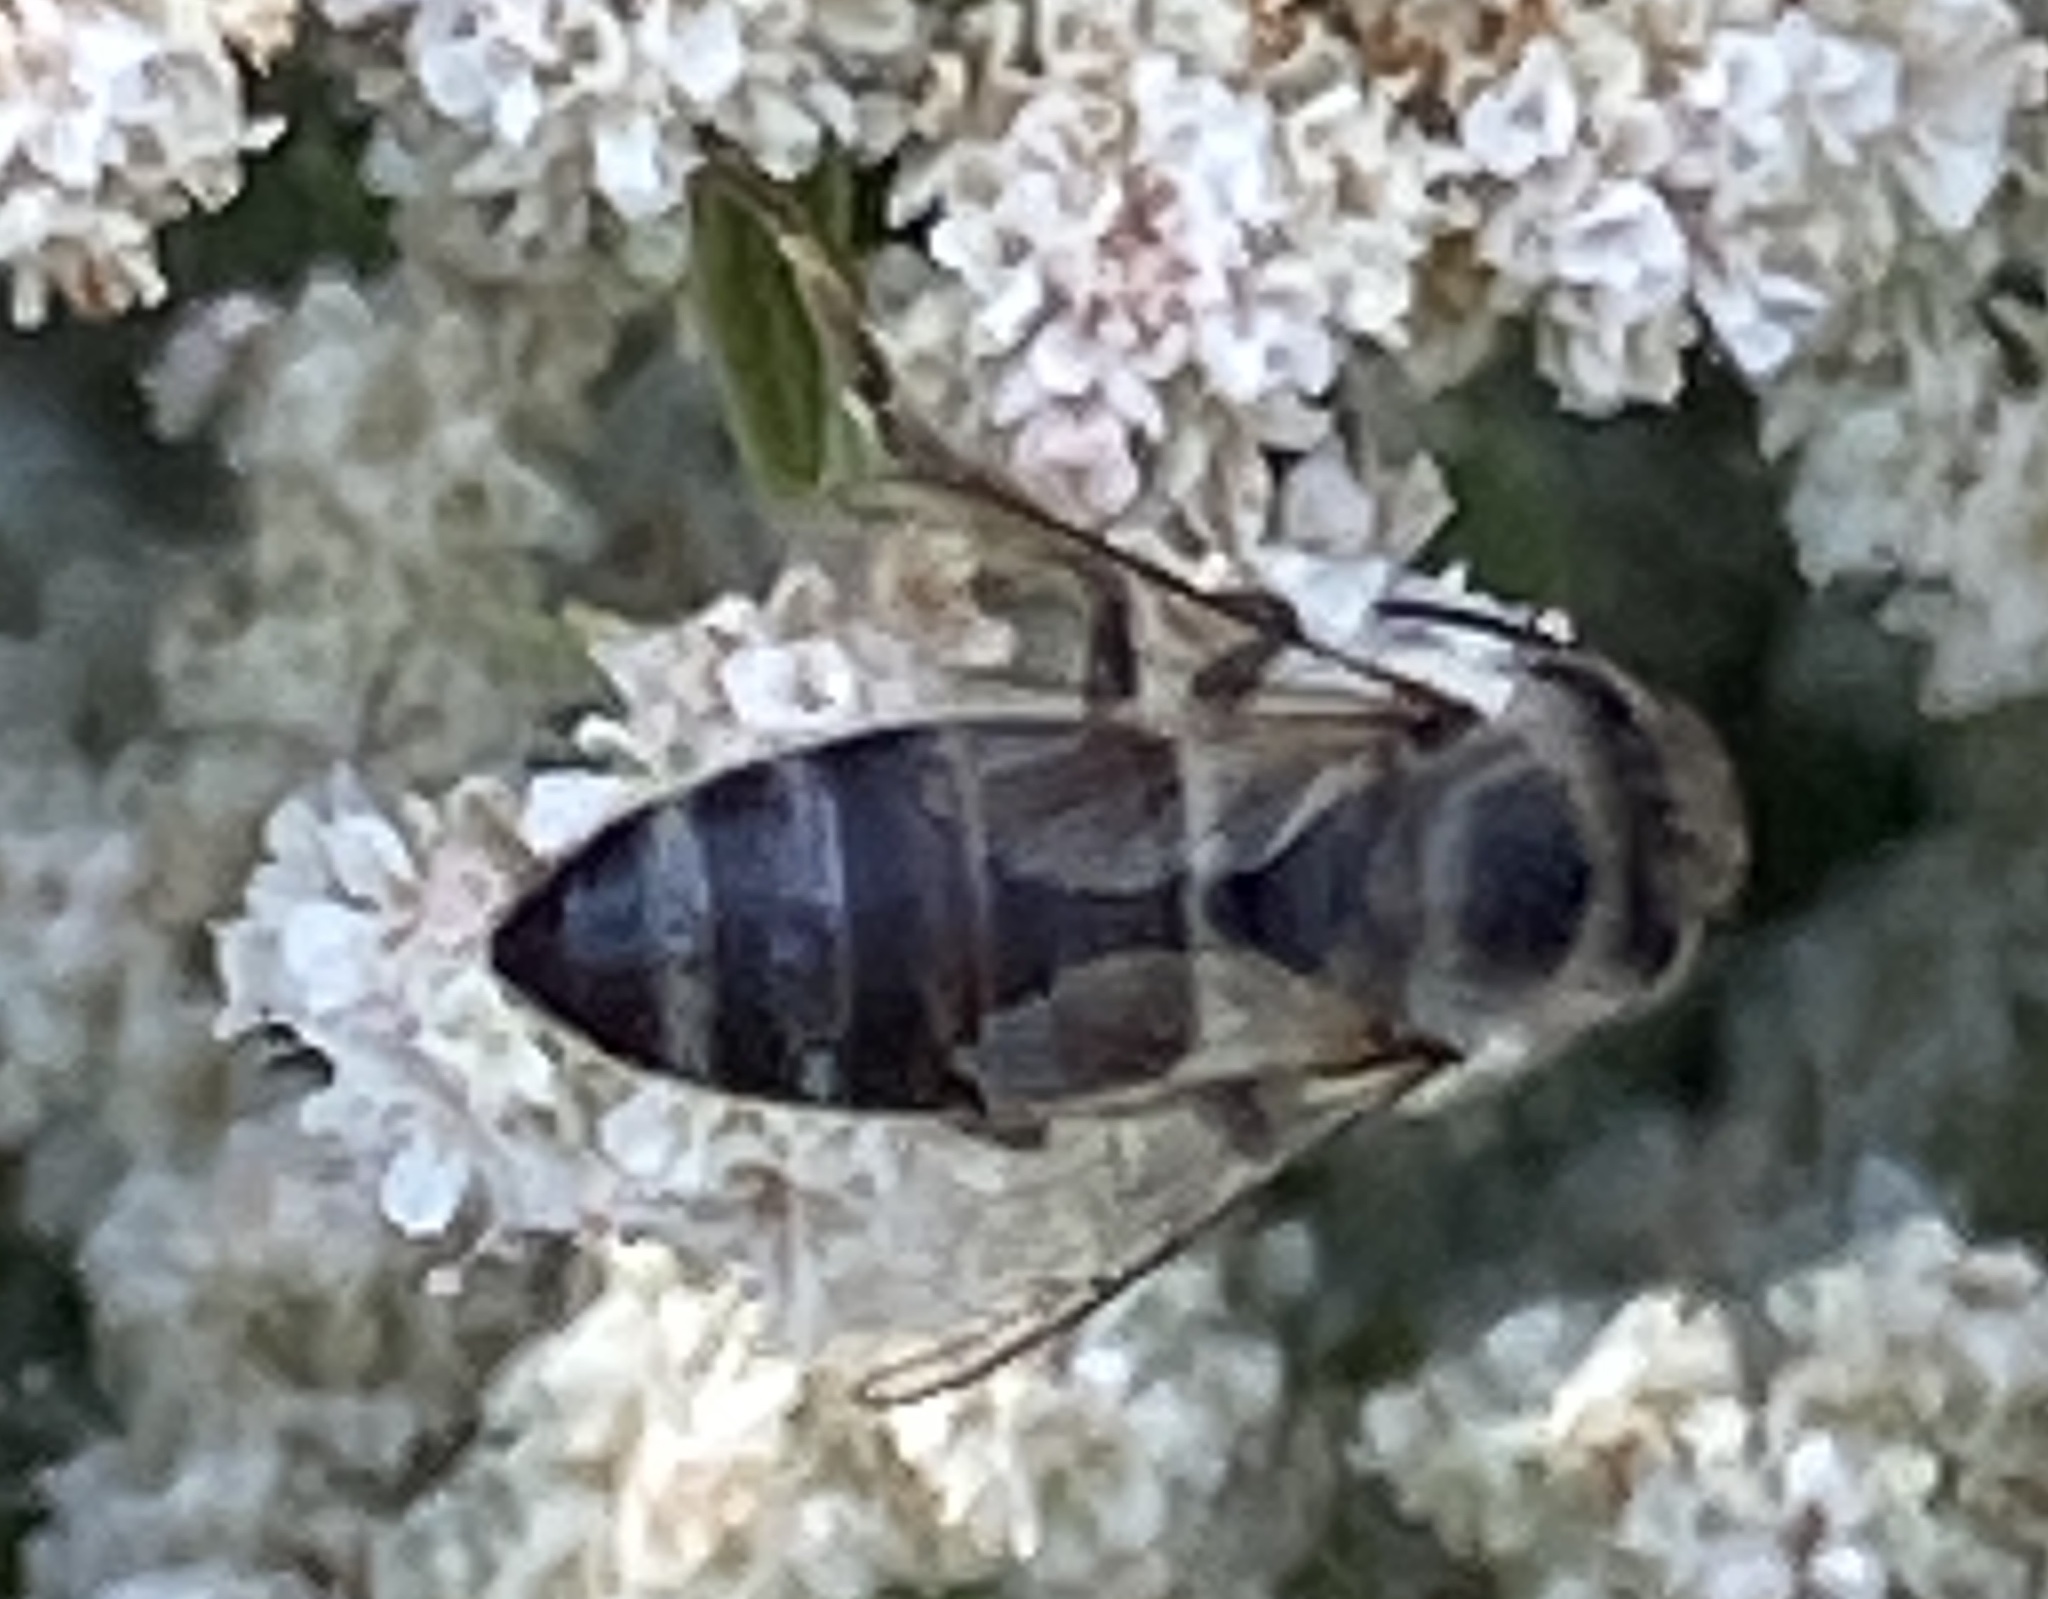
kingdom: Animalia
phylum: Arthropoda
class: Insecta
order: Hymenoptera
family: Apidae
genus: Apis
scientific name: Apis mellifera
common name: Honey bee
